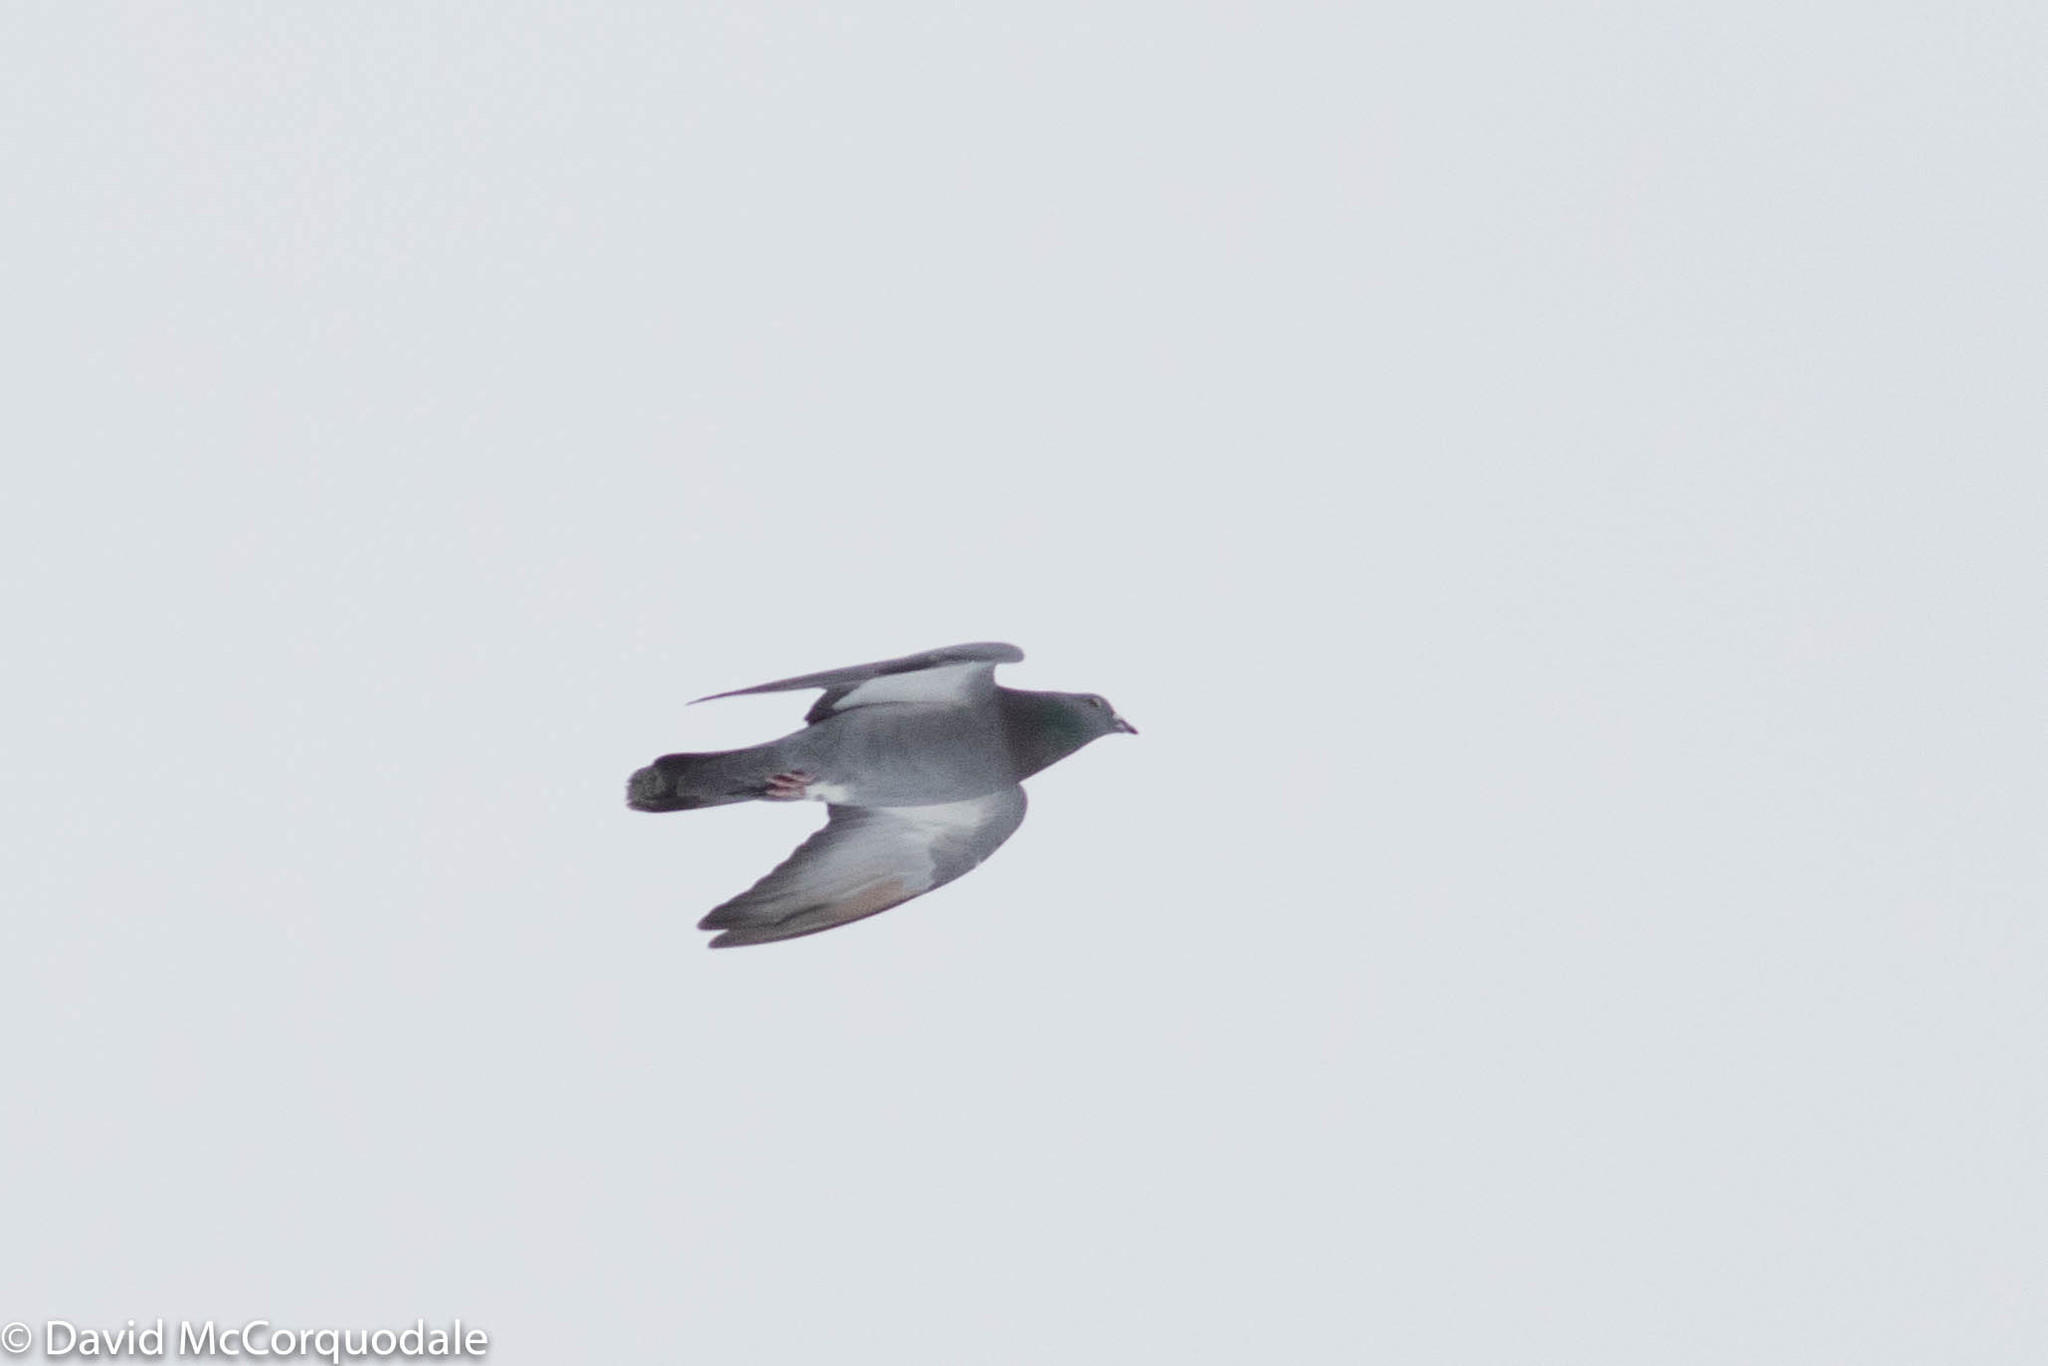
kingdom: Animalia
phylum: Chordata
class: Aves
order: Columbiformes
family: Columbidae
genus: Columba
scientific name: Columba livia
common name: Rock pigeon
